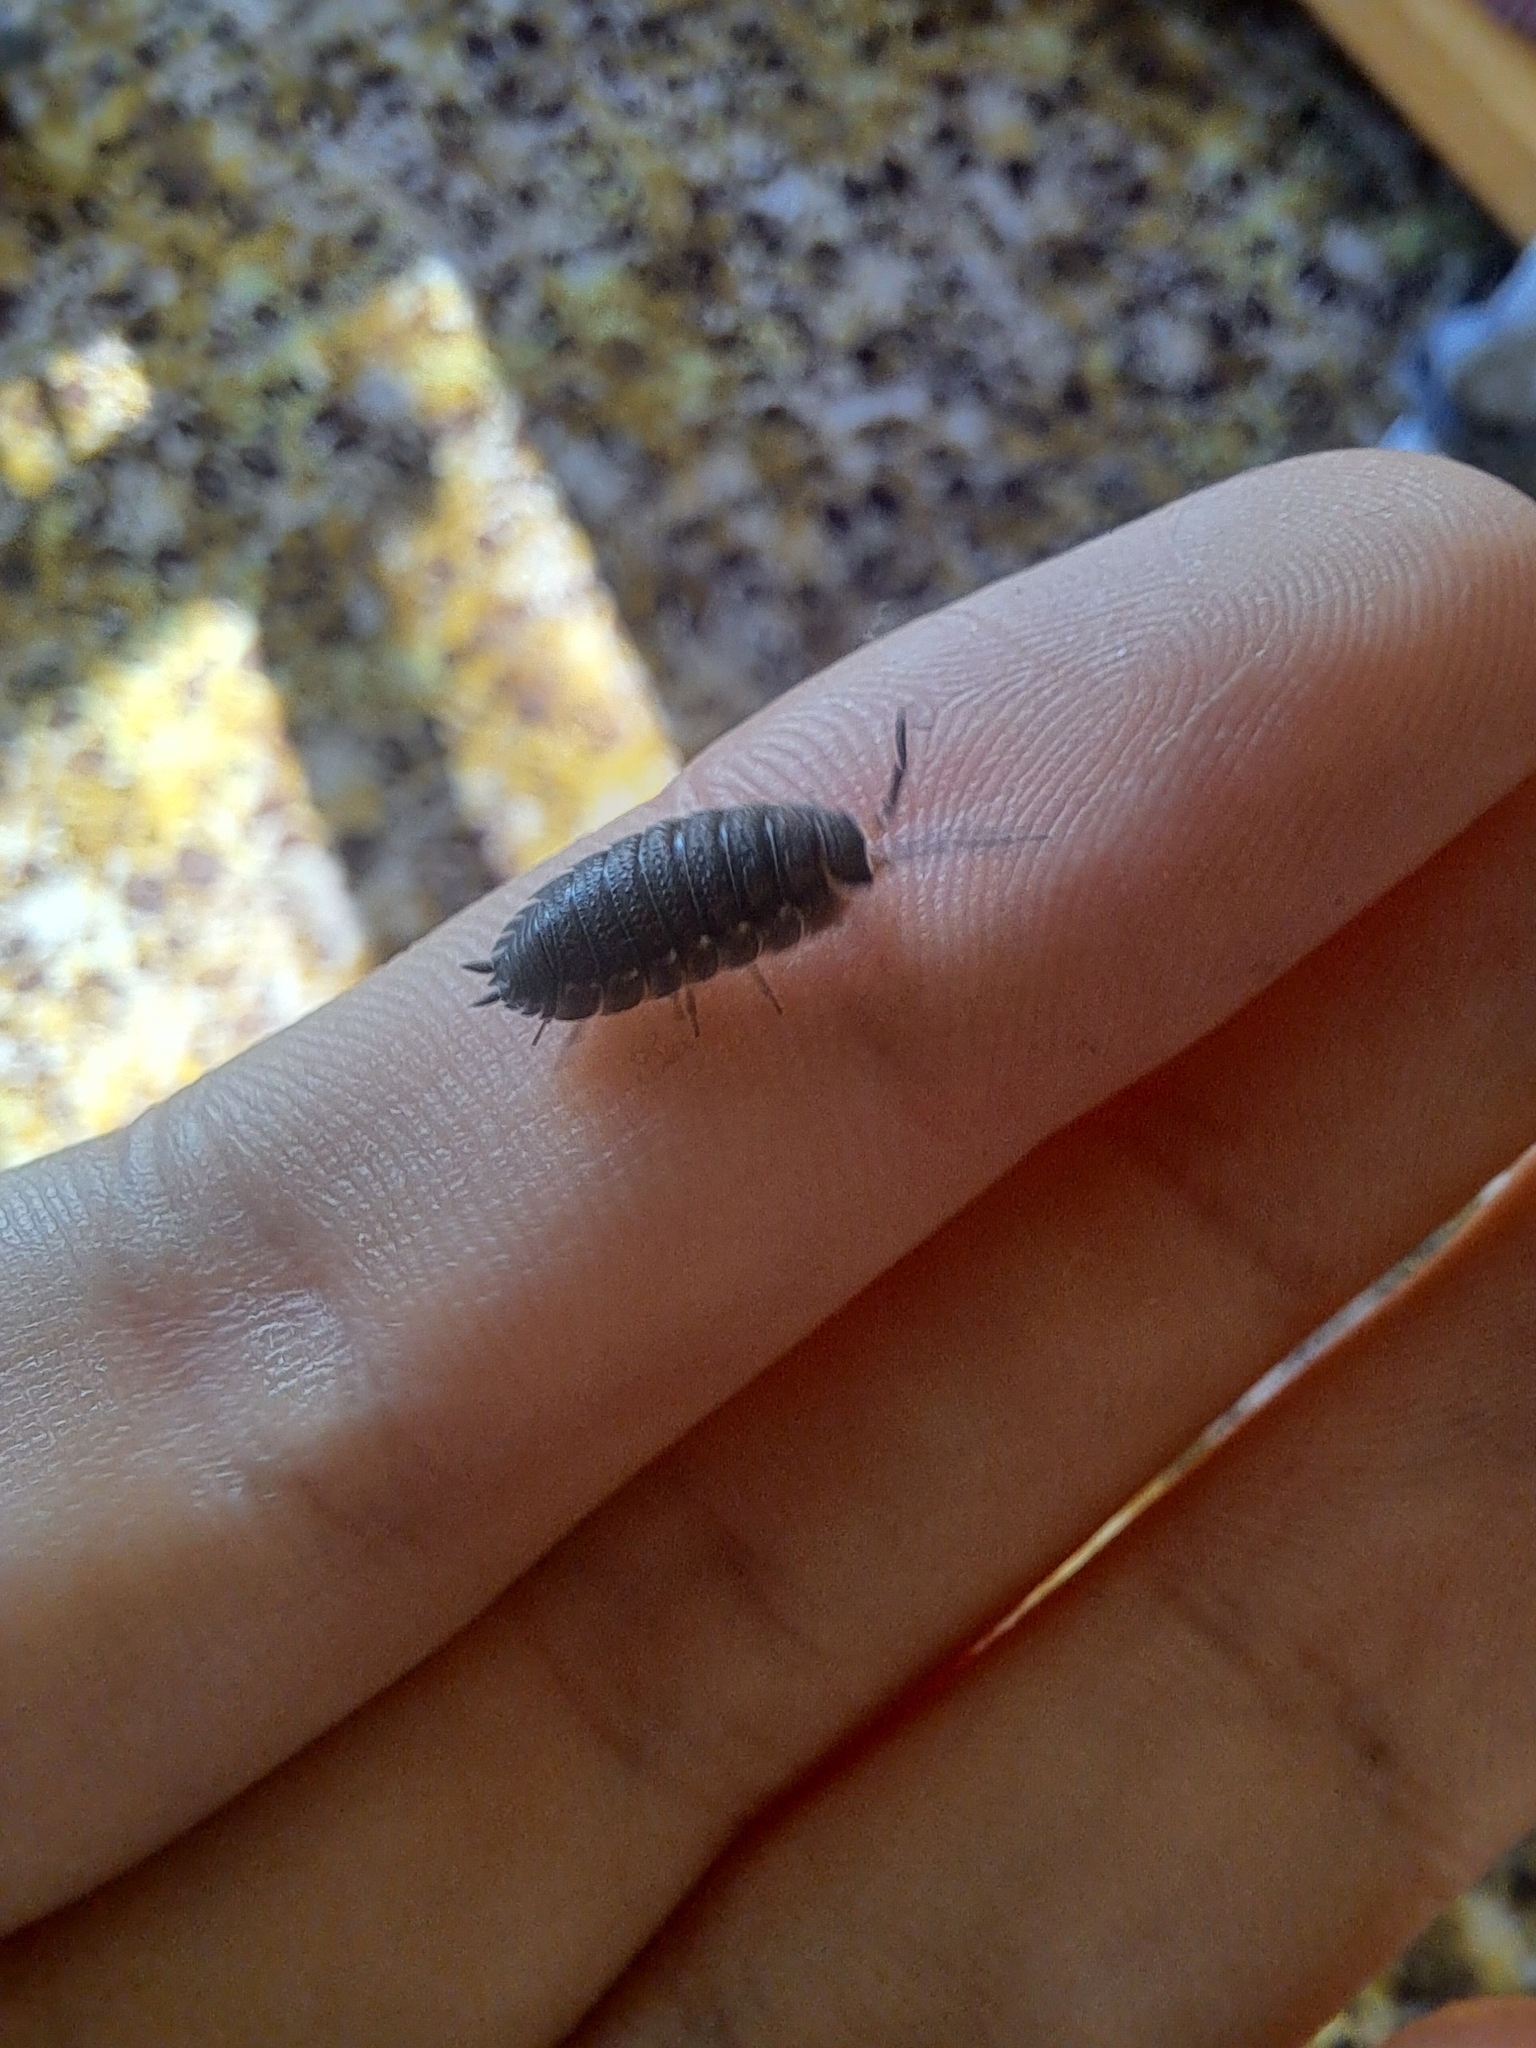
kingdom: Animalia
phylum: Arthropoda
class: Malacostraca
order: Isopoda
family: Porcellionidae
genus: Porcellio
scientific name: Porcellio scaber
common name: Common rough woodlouse
